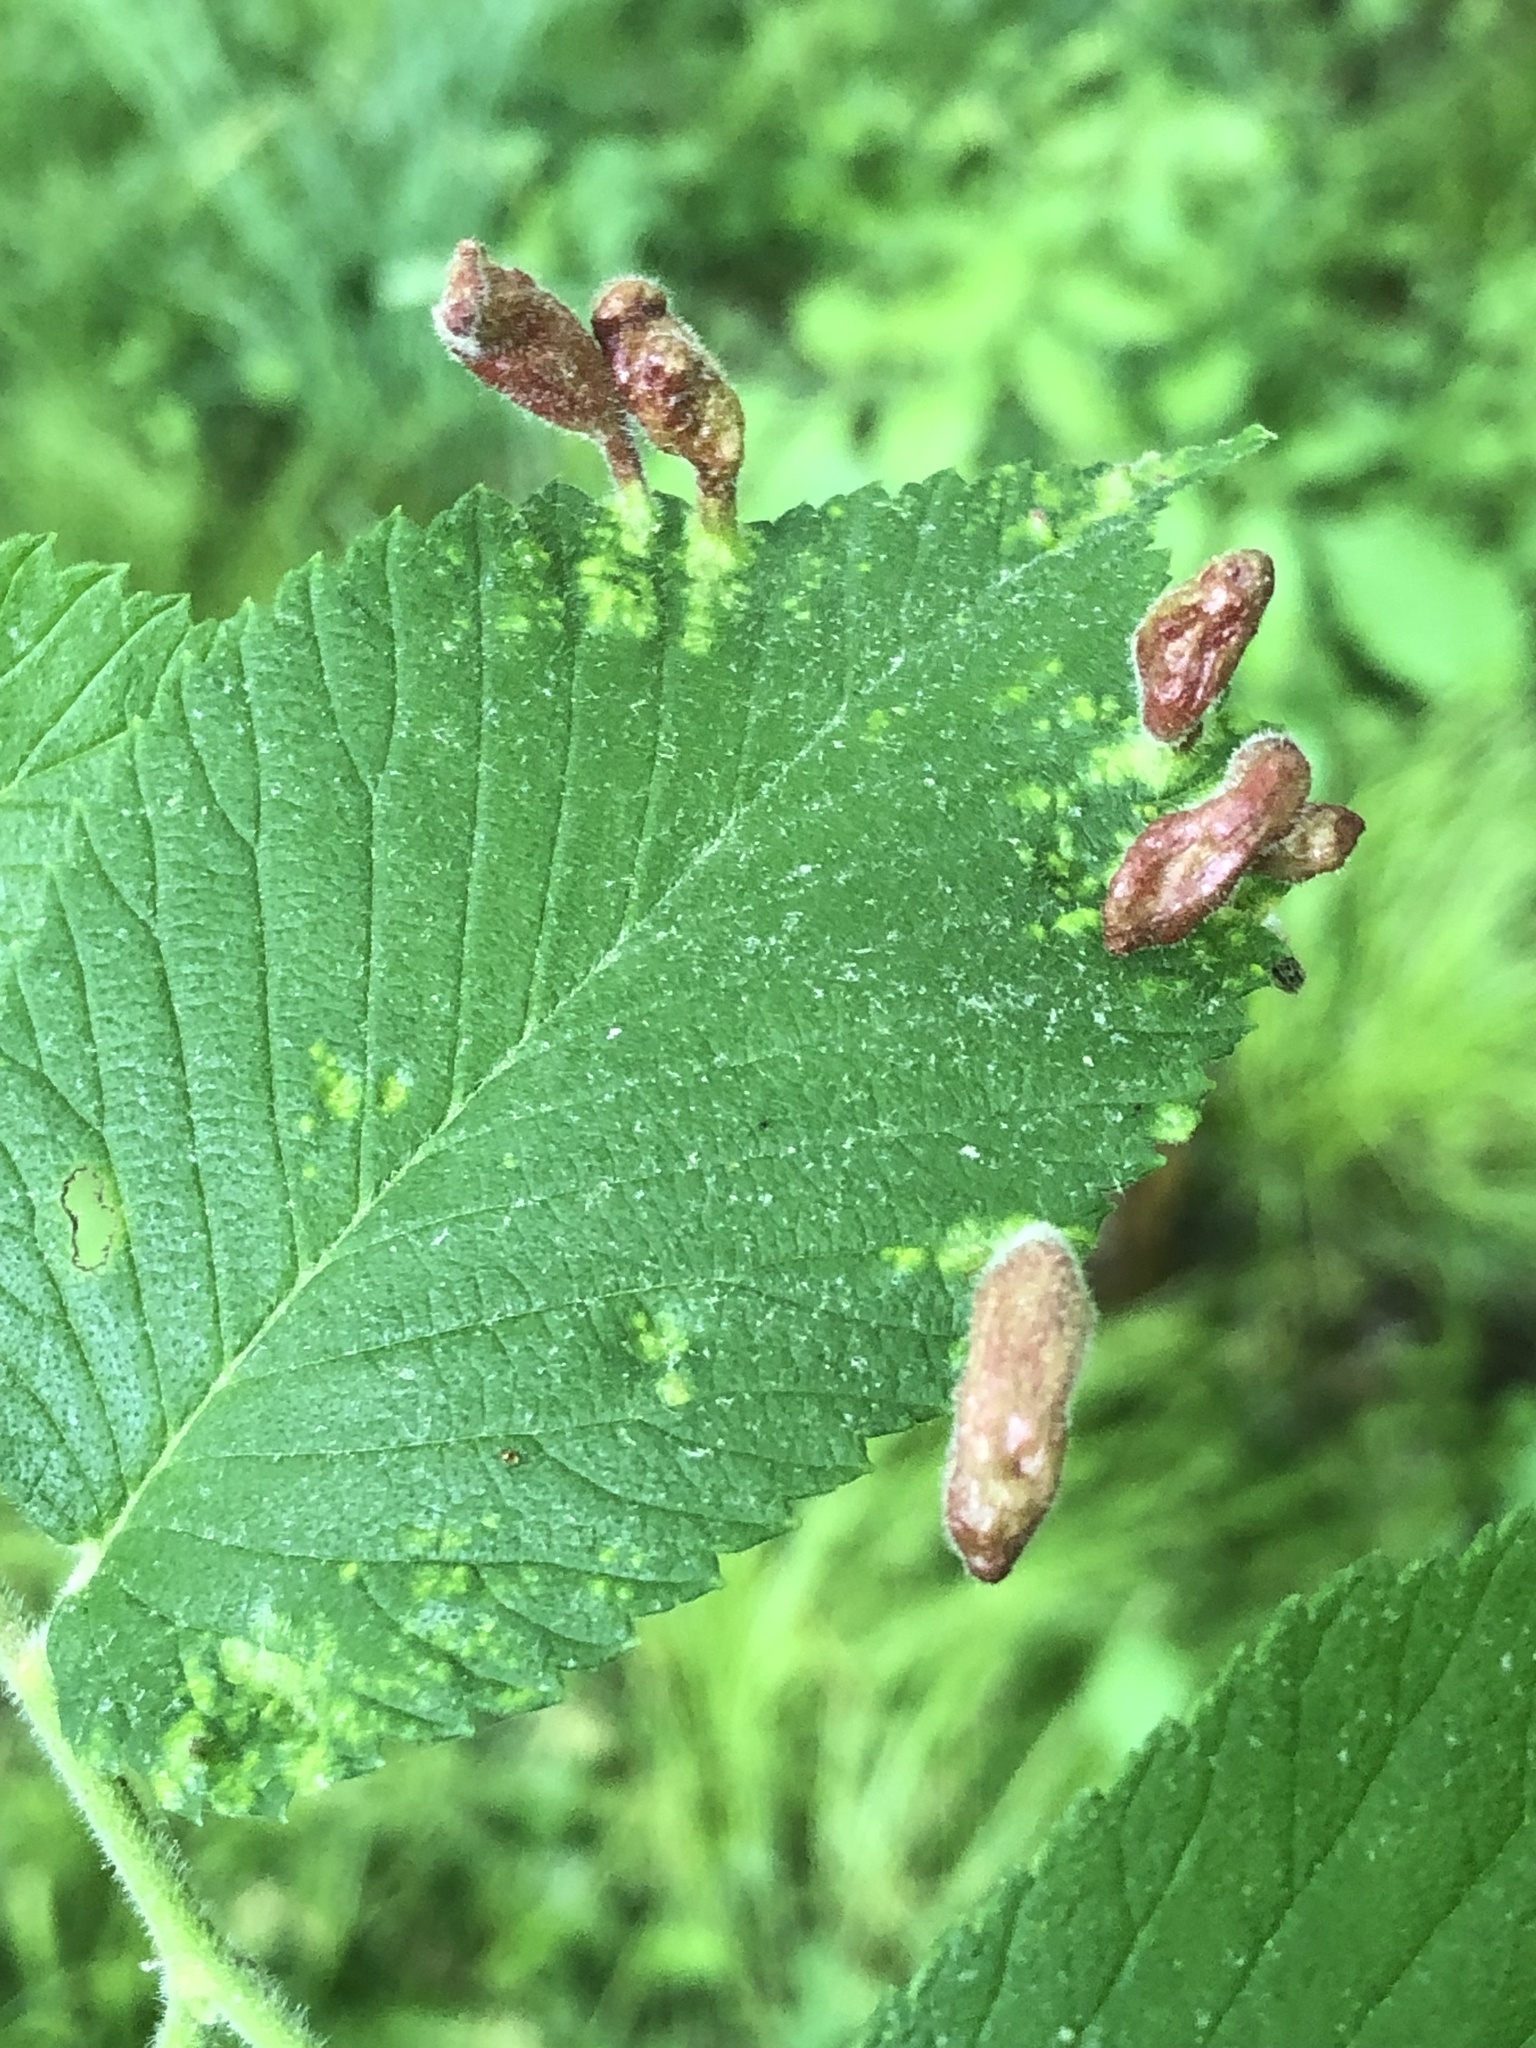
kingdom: Animalia
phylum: Arthropoda
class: Insecta
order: Hemiptera
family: Aphididae
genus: Tetraneura
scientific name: Tetraneura nigriabdominalis
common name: Aphid
